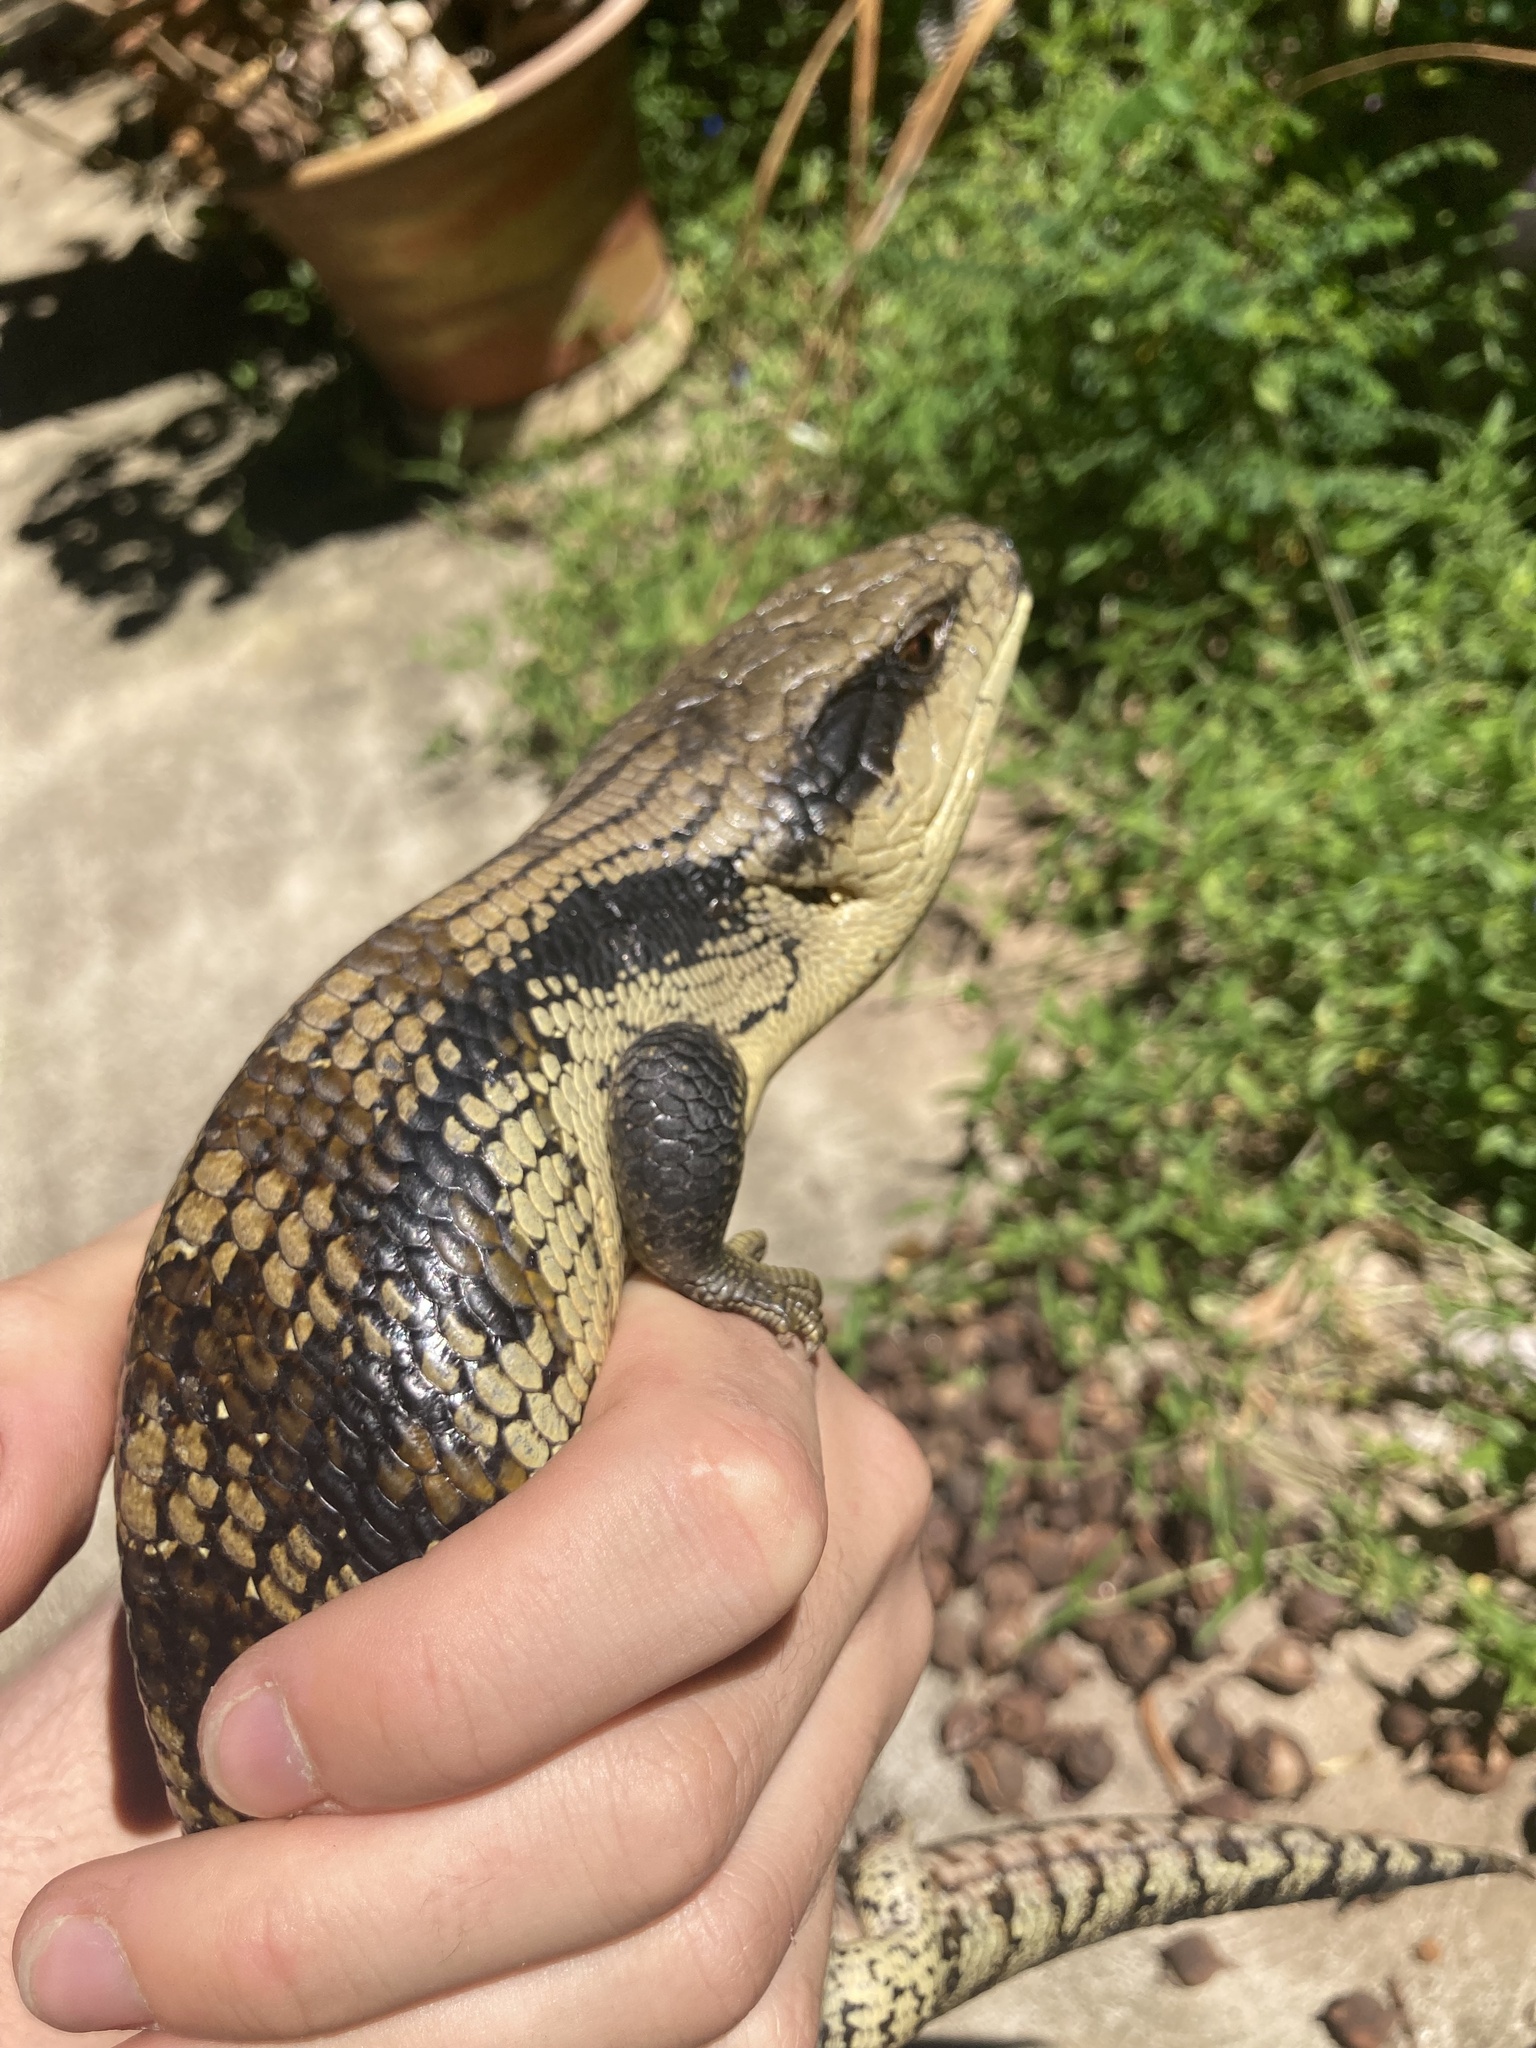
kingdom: Animalia
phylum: Chordata
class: Squamata
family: Scincidae
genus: Tiliqua
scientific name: Tiliqua scincoides
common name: Common bluetongue
